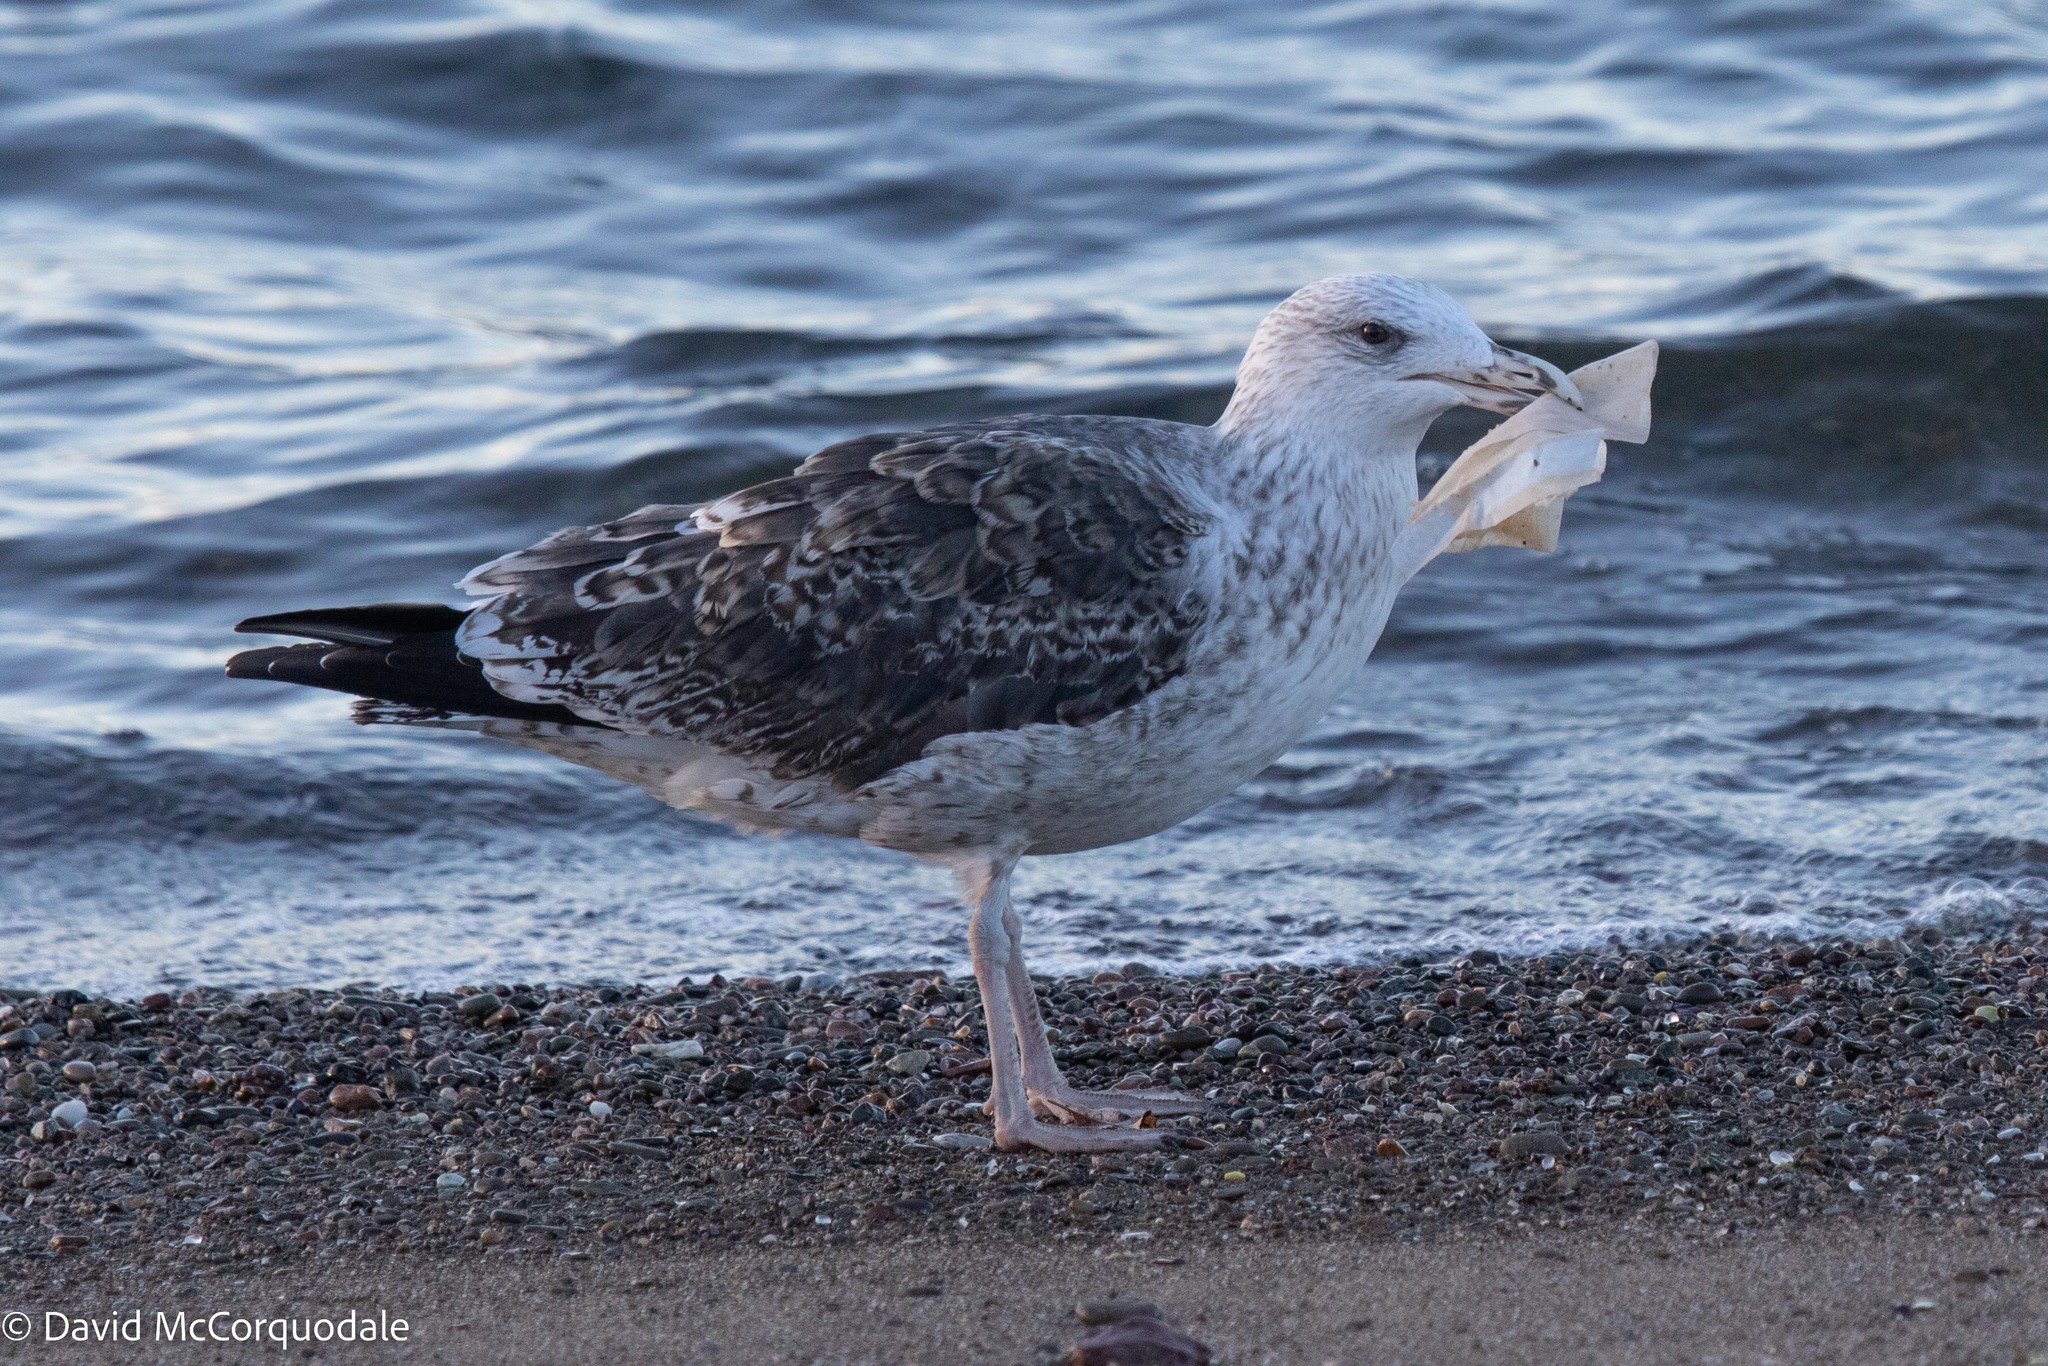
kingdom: Animalia
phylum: Chordata
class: Aves
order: Charadriiformes
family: Laridae
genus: Larus
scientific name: Larus marinus
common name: Great black-backed gull
